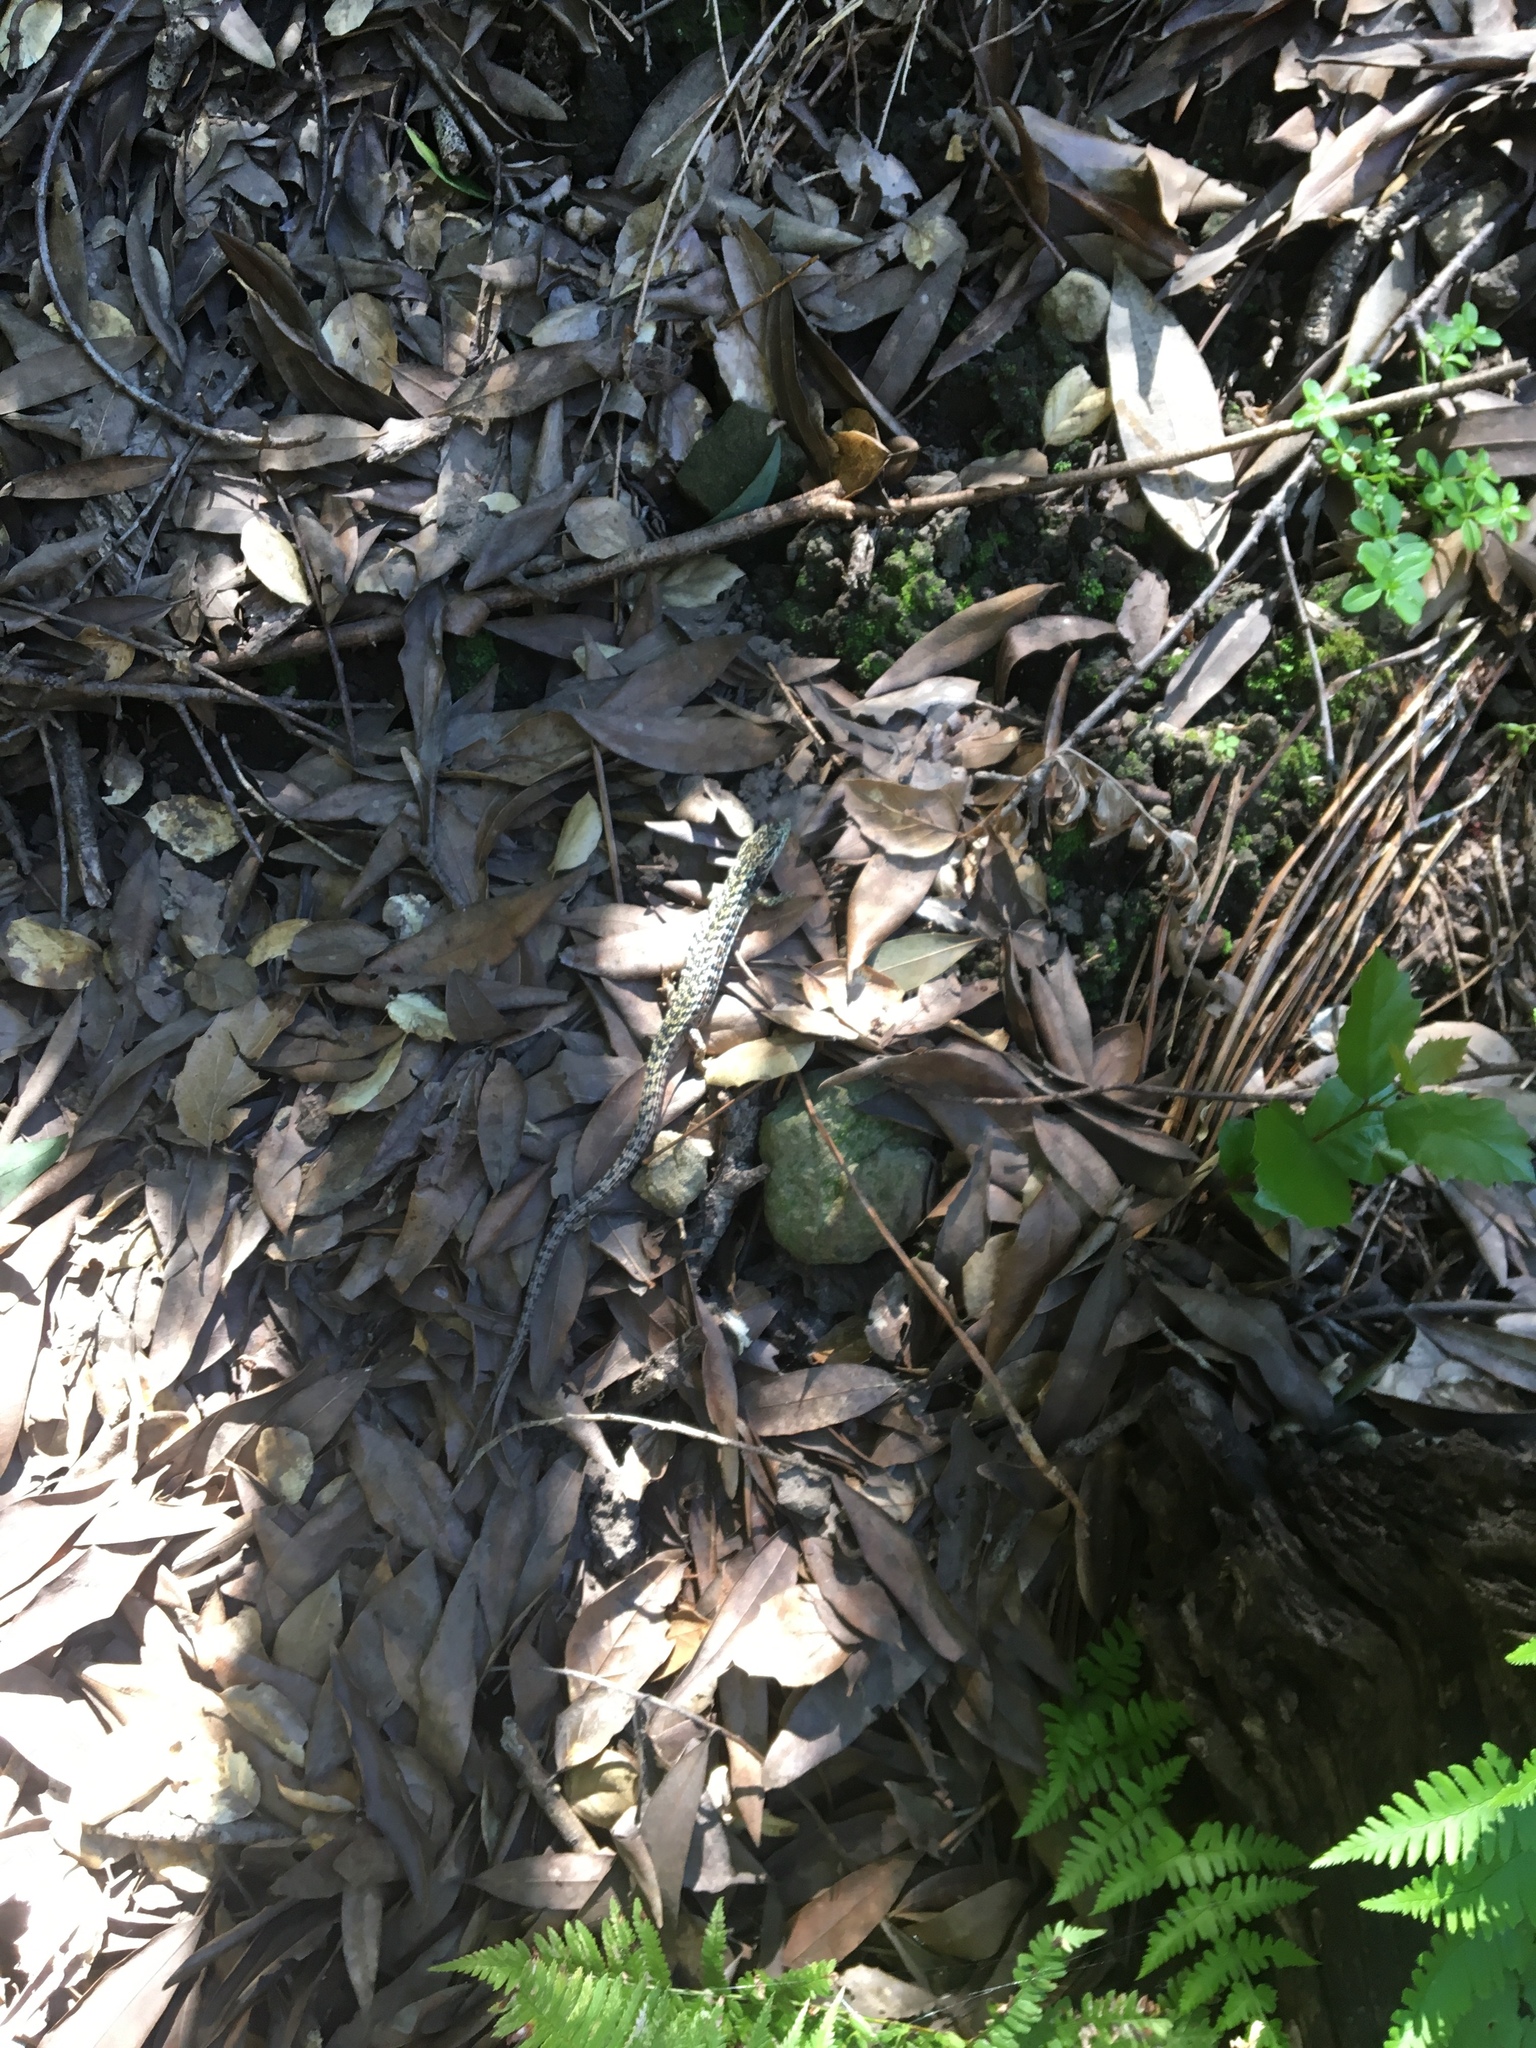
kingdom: Animalia
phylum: Chordata
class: Squamata
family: Anguidae
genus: Elgaria
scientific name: Elgaria coerulea
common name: Northern alligator lizard
